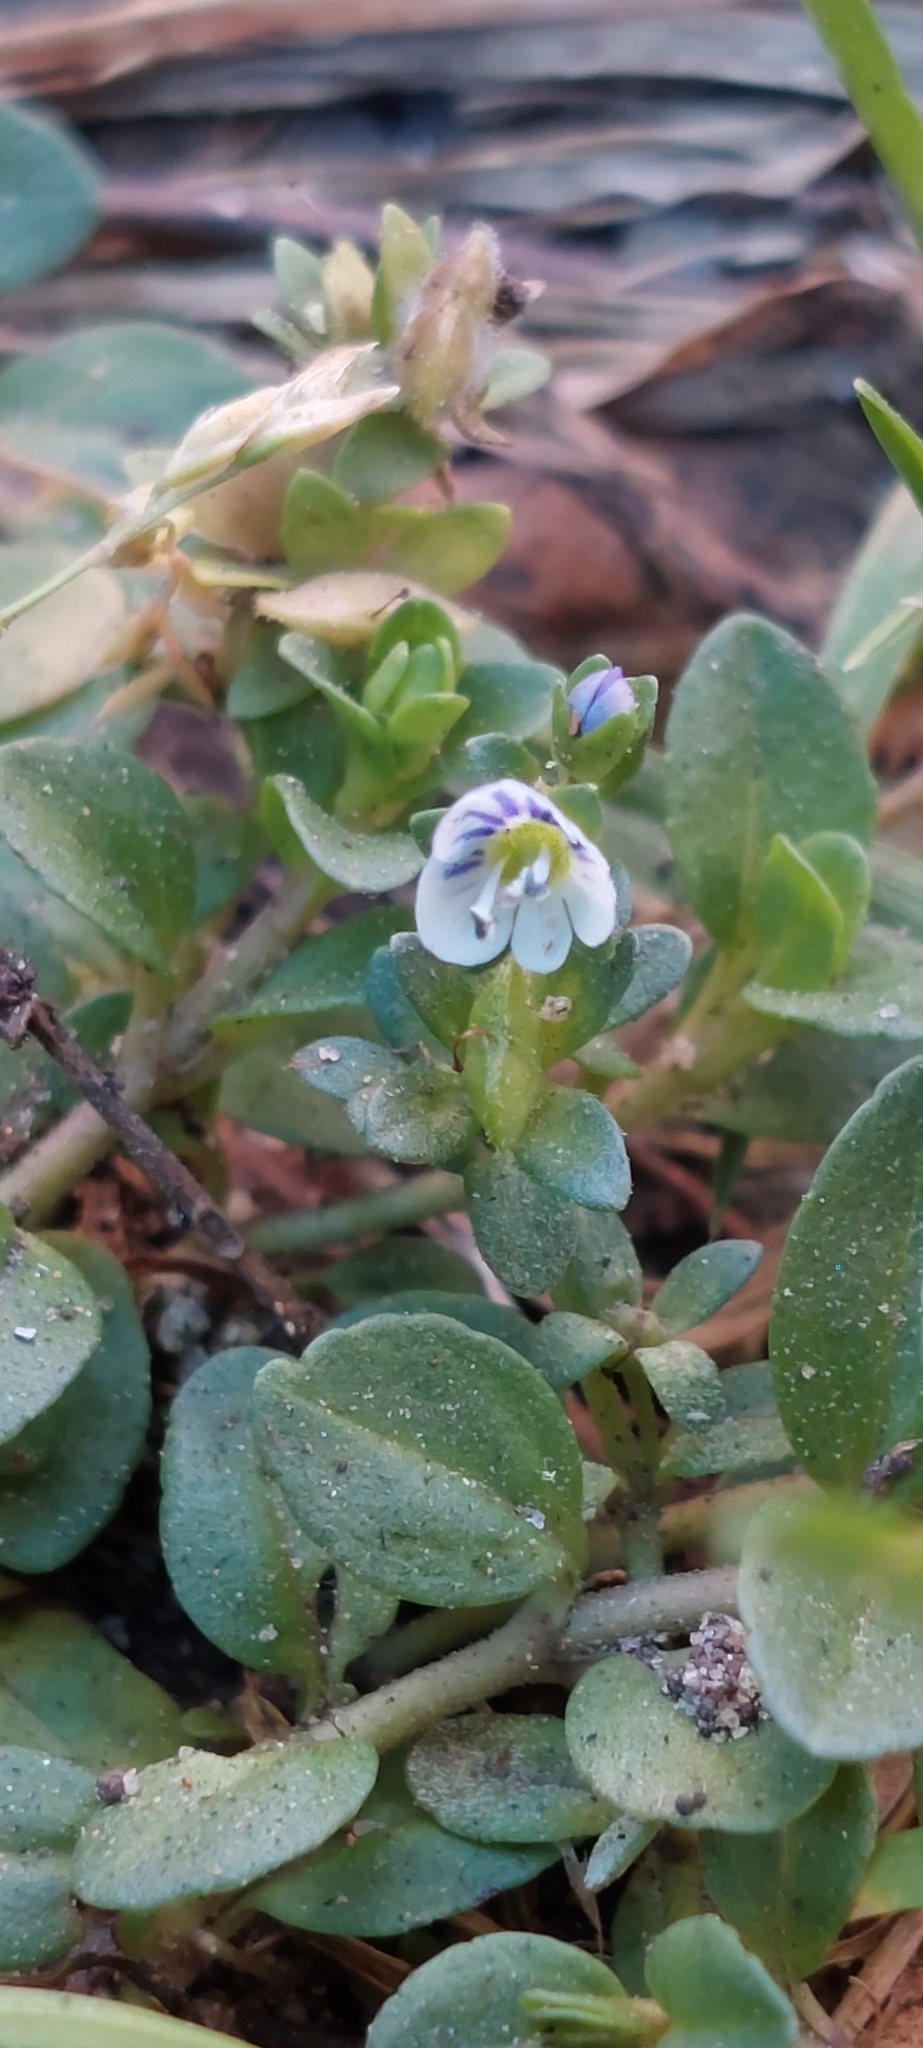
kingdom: Plantae
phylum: Tracheophyta
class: Magnoliopsida
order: Lamiales
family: Plantaginaceae
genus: Veronica
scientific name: Veronica serpyllifolia
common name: Thyme-leaved speedwell
